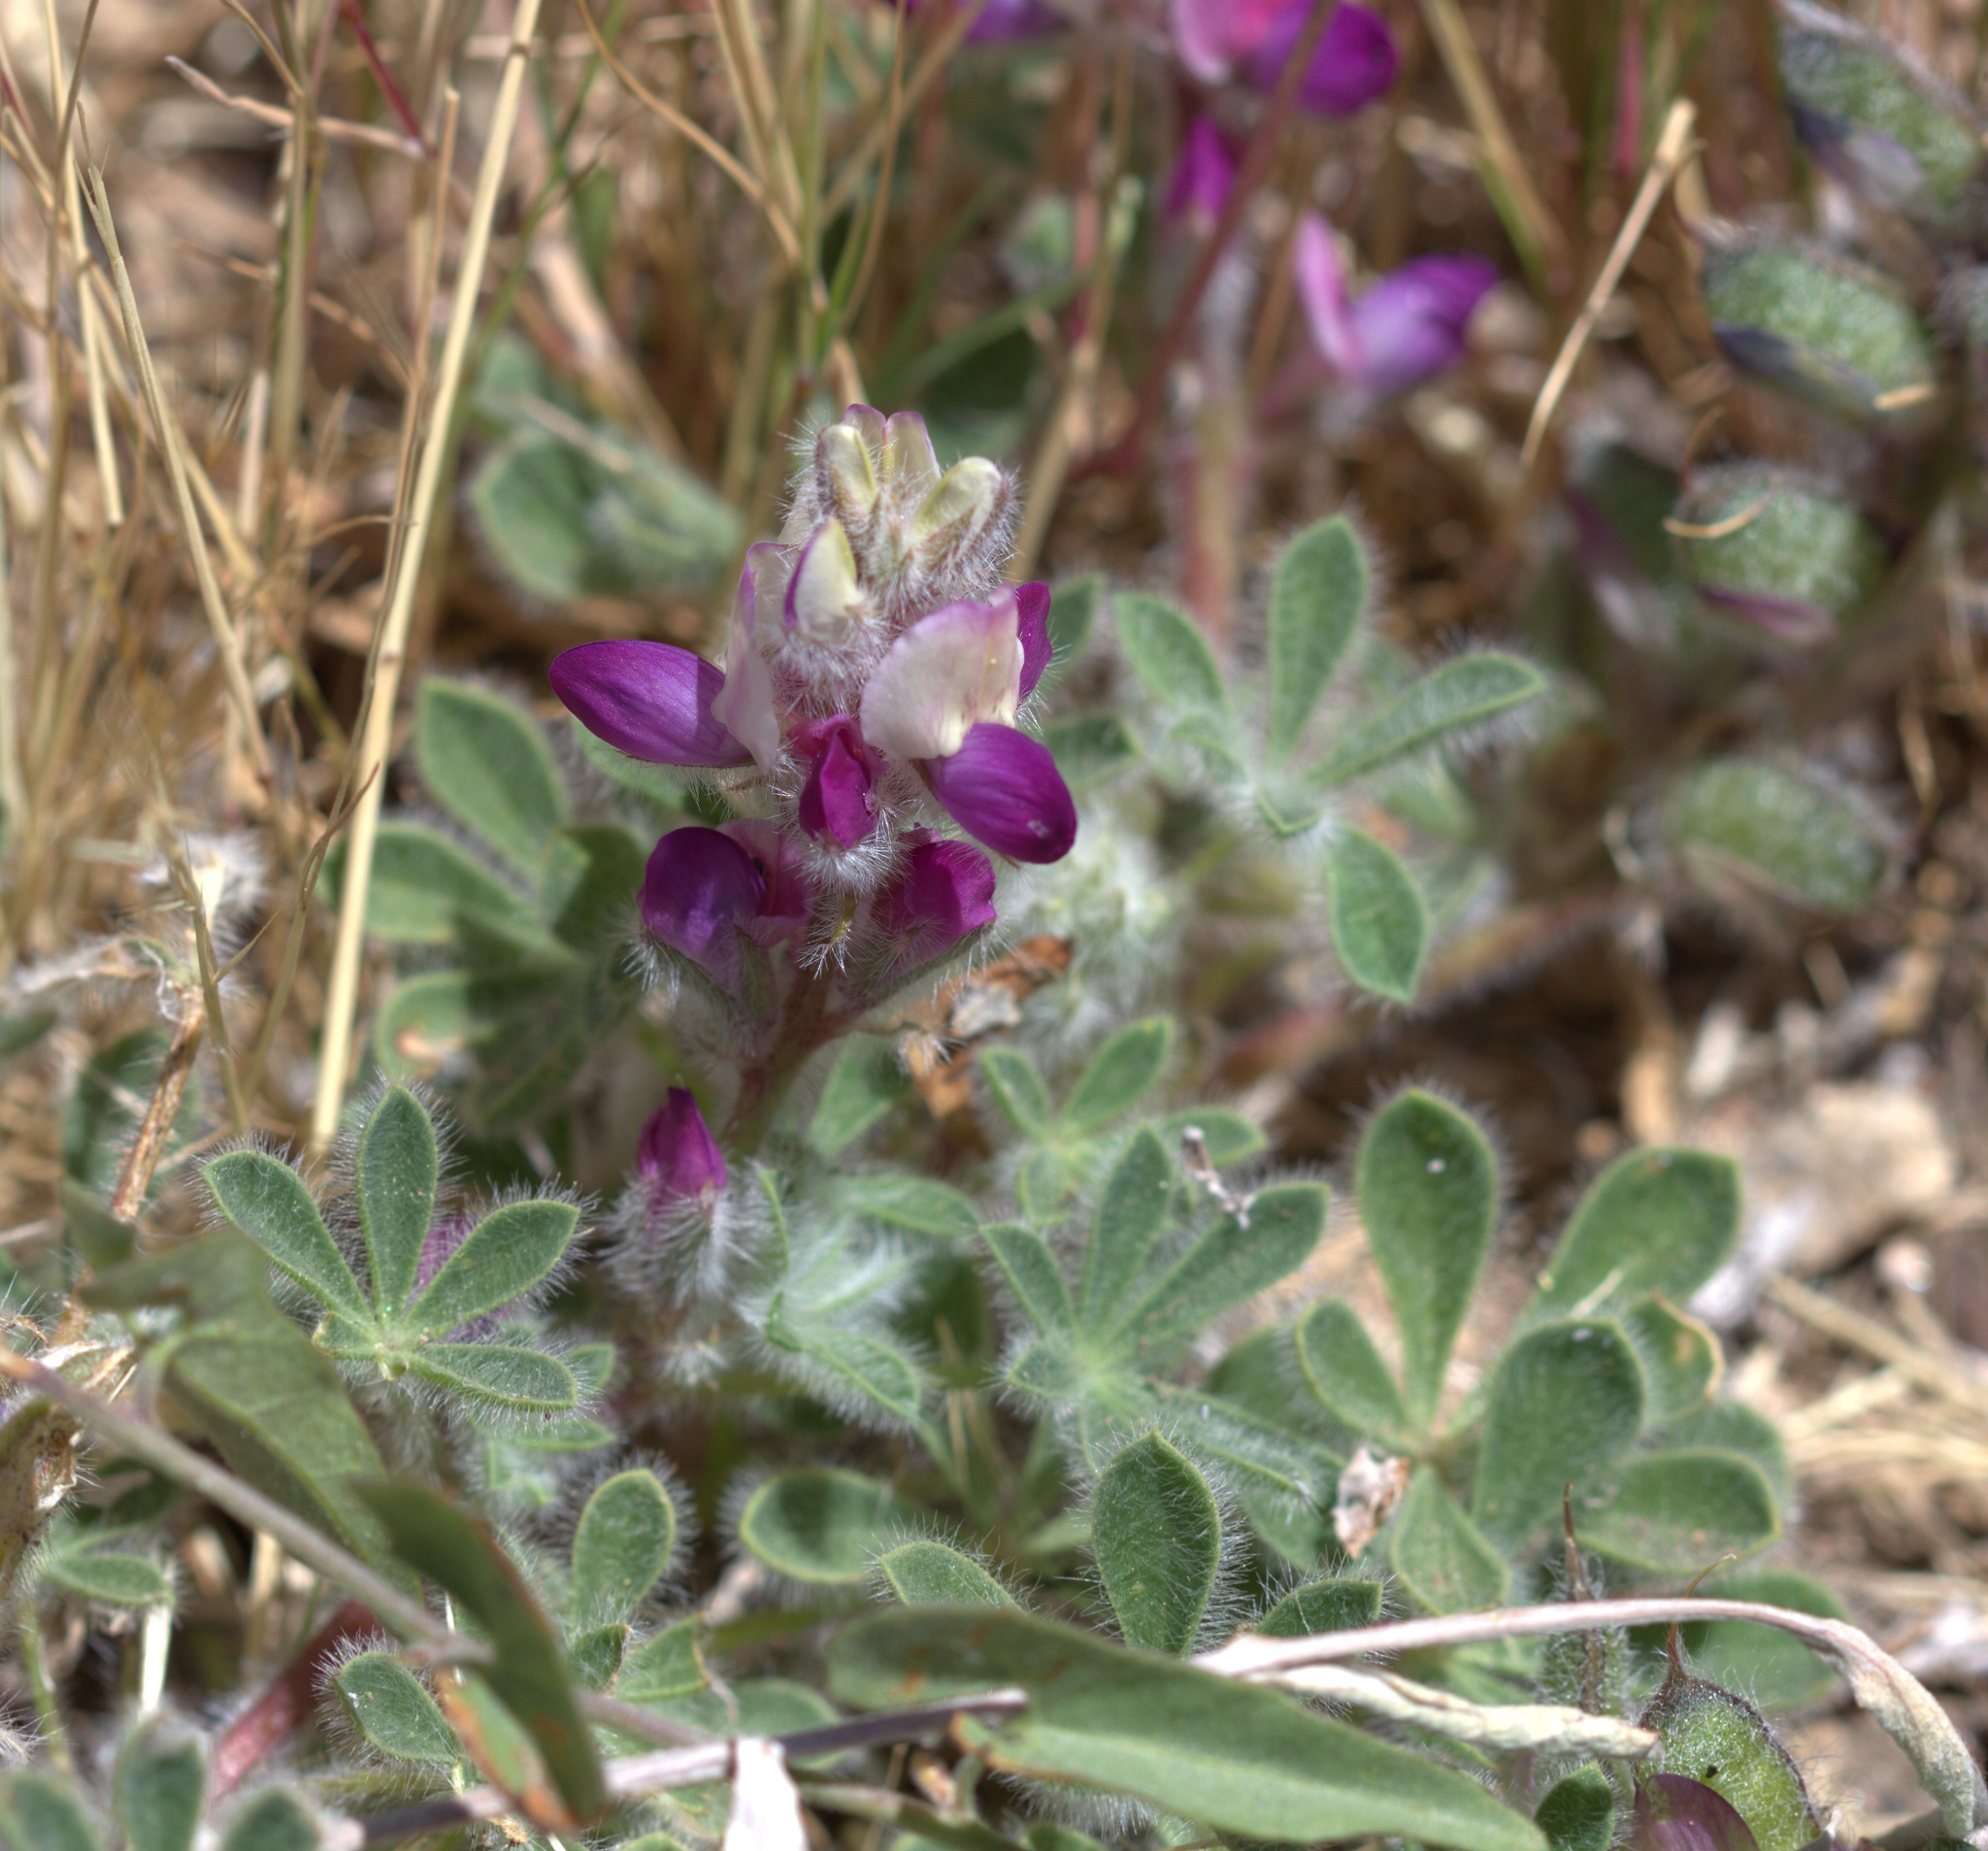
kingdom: Plantae
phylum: Tracheophyta
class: Magnoliopsida
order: Fabales
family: Fabaceae
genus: Lupinus
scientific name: Lupinus concinnus
